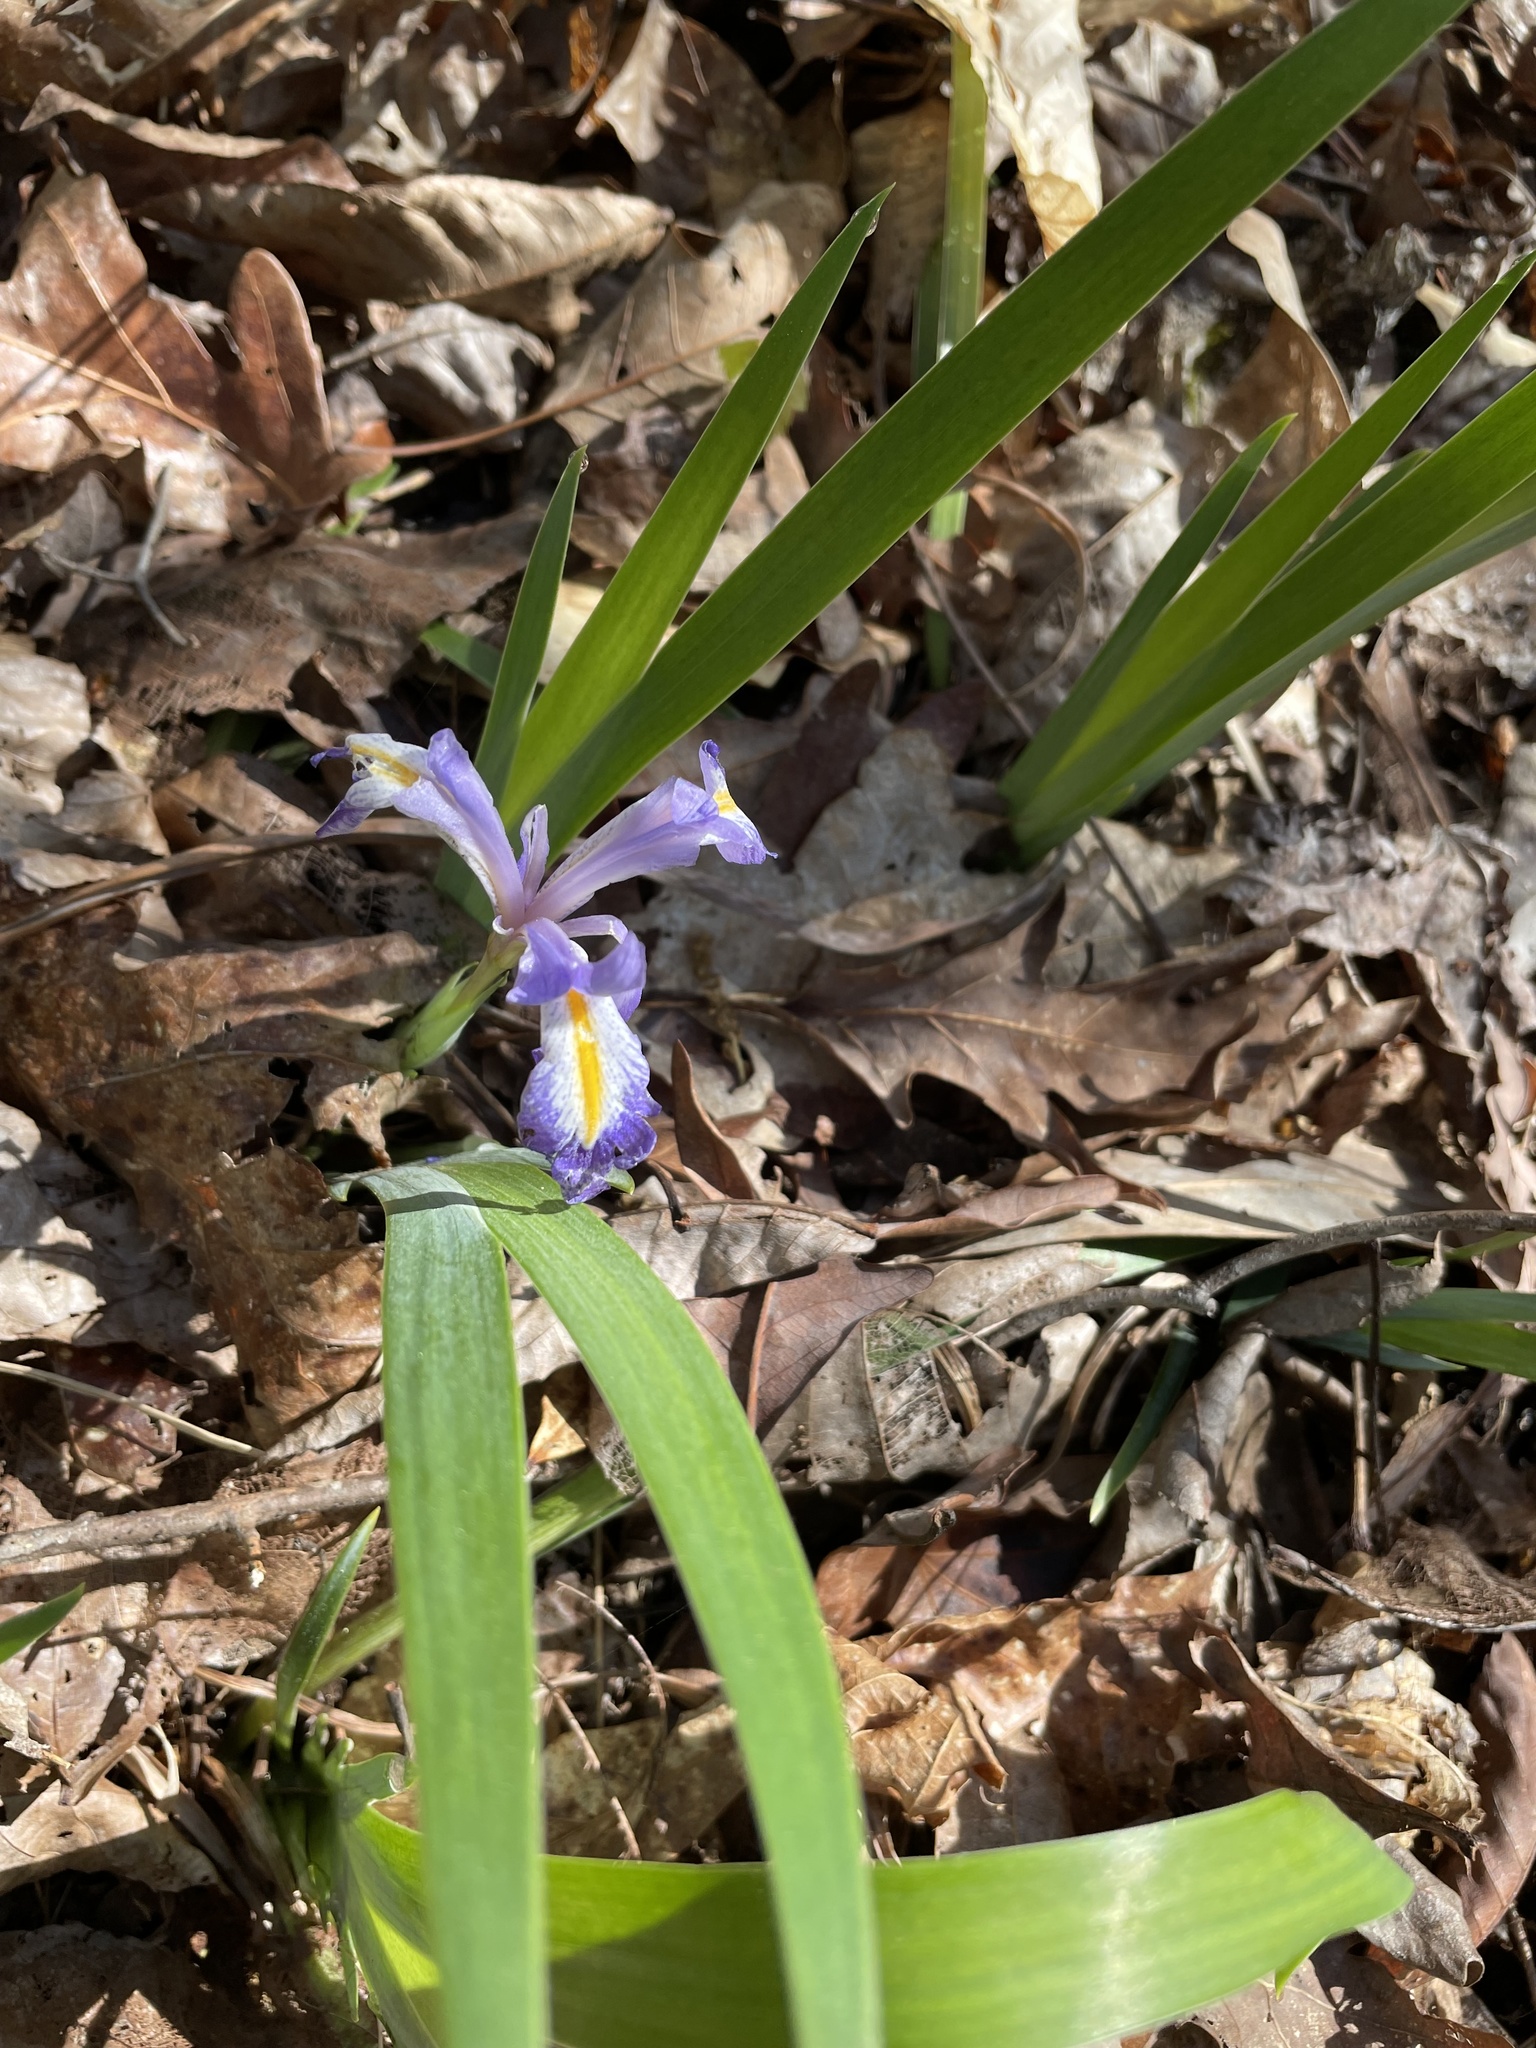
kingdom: Plantae
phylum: Tracheophyta
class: Liliopsida
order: Asparagales
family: Iridaceae
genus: Iris
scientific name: Iris verna
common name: Dwarf iris
